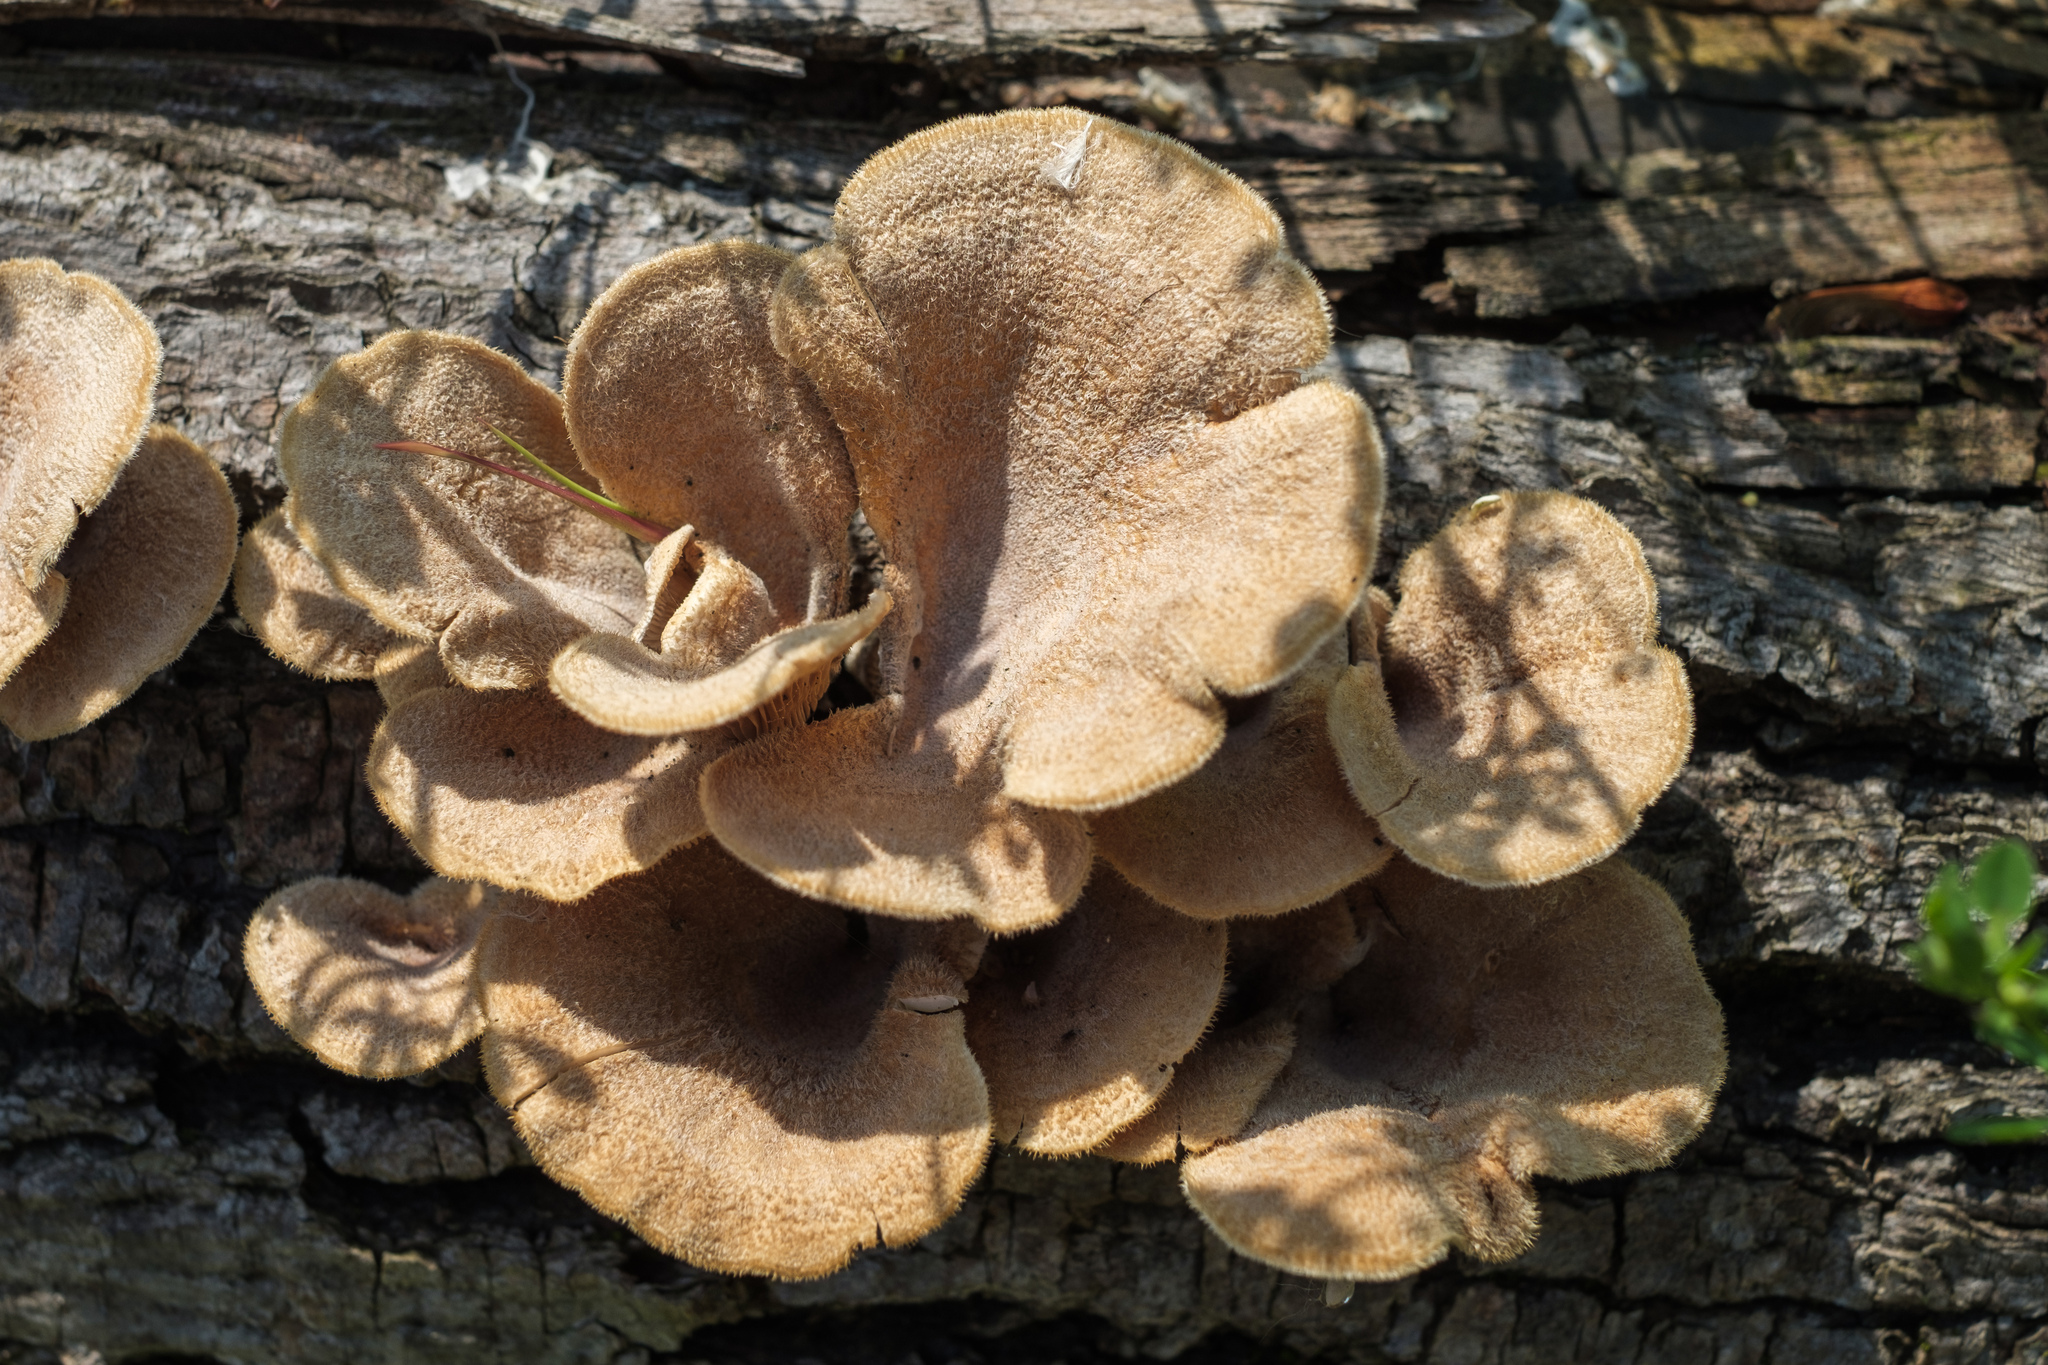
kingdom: Fungi
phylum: Basidiomycota
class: Agaricomycetes
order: Polyporales
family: Panaceae
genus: Panus
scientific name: Panus neostrigosus
